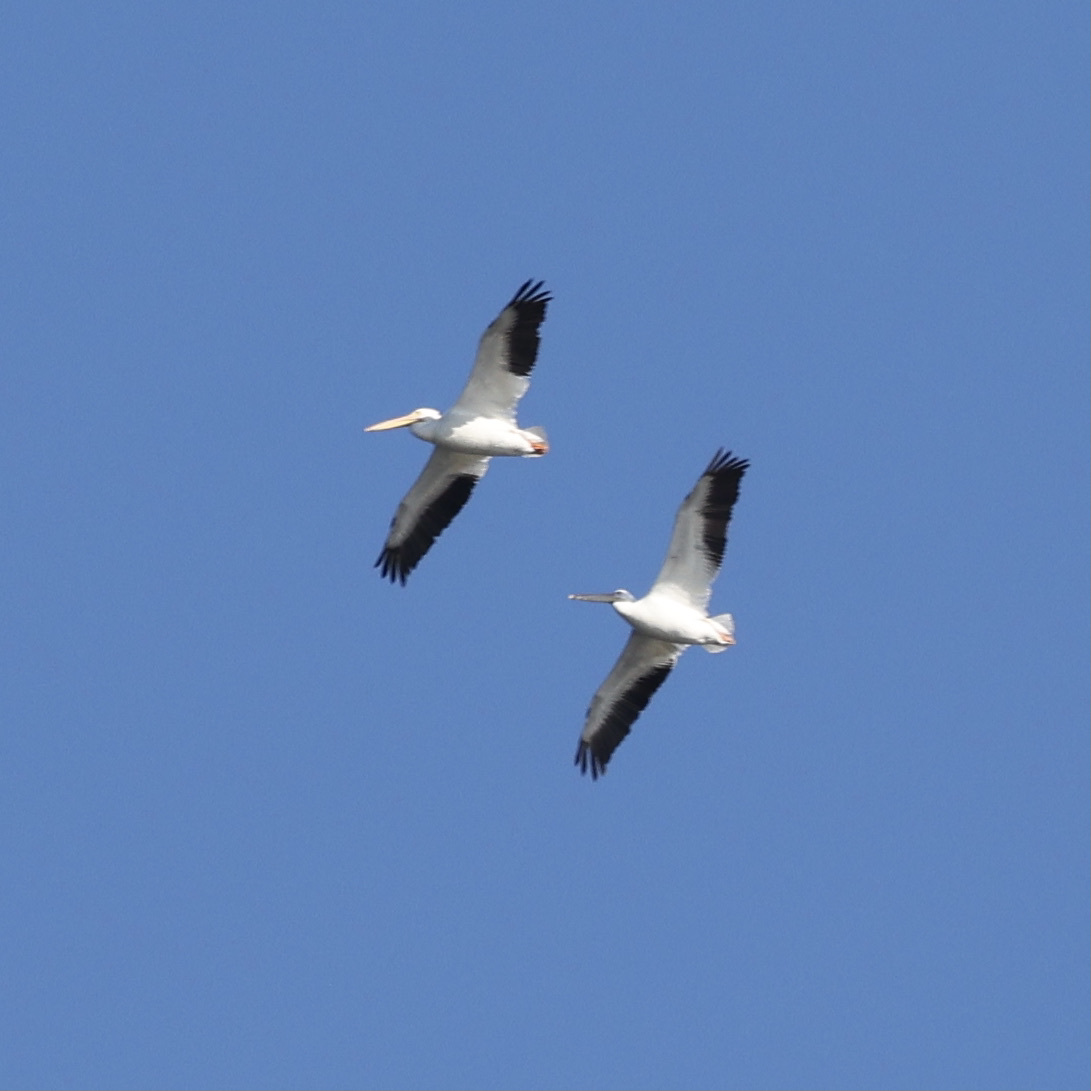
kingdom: Animalia
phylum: Chordata
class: Aves
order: Pelecaniformes
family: Pelecanidae
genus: Pelecanus
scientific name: Pelecanus erythrorhynchos
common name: American white pelican
